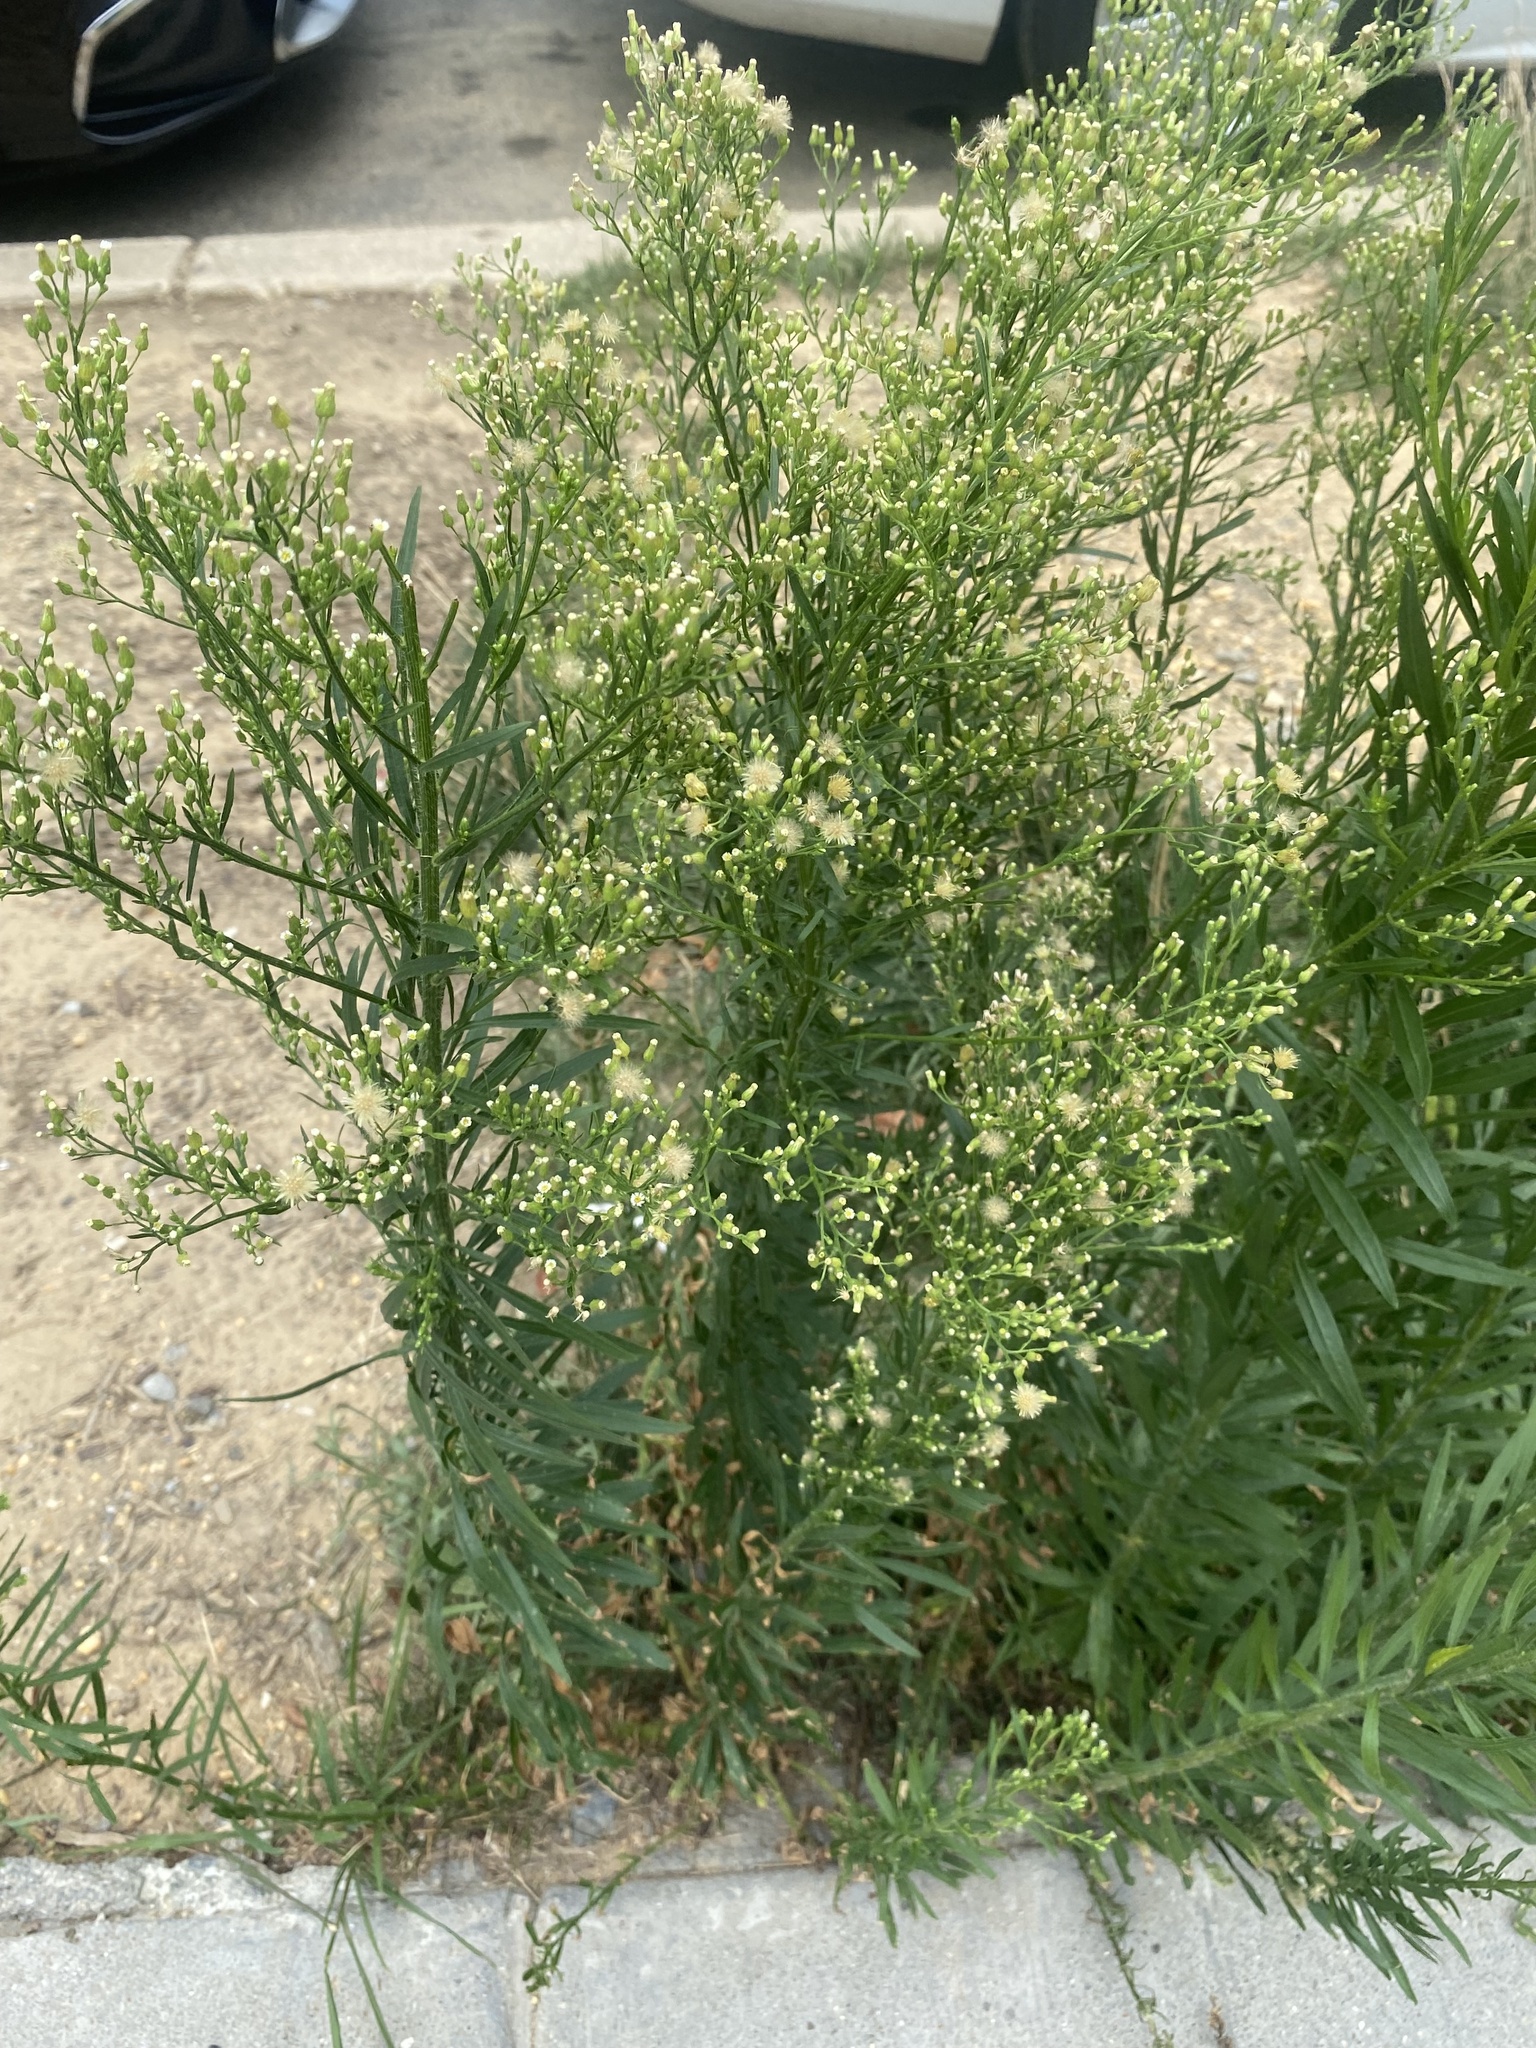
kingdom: Plantae
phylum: Tracheophyta
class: Magnoliopsida
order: Asterales
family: Asteraceae
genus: Erigeron
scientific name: Erigeron canadensis
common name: Canadian fleabane
